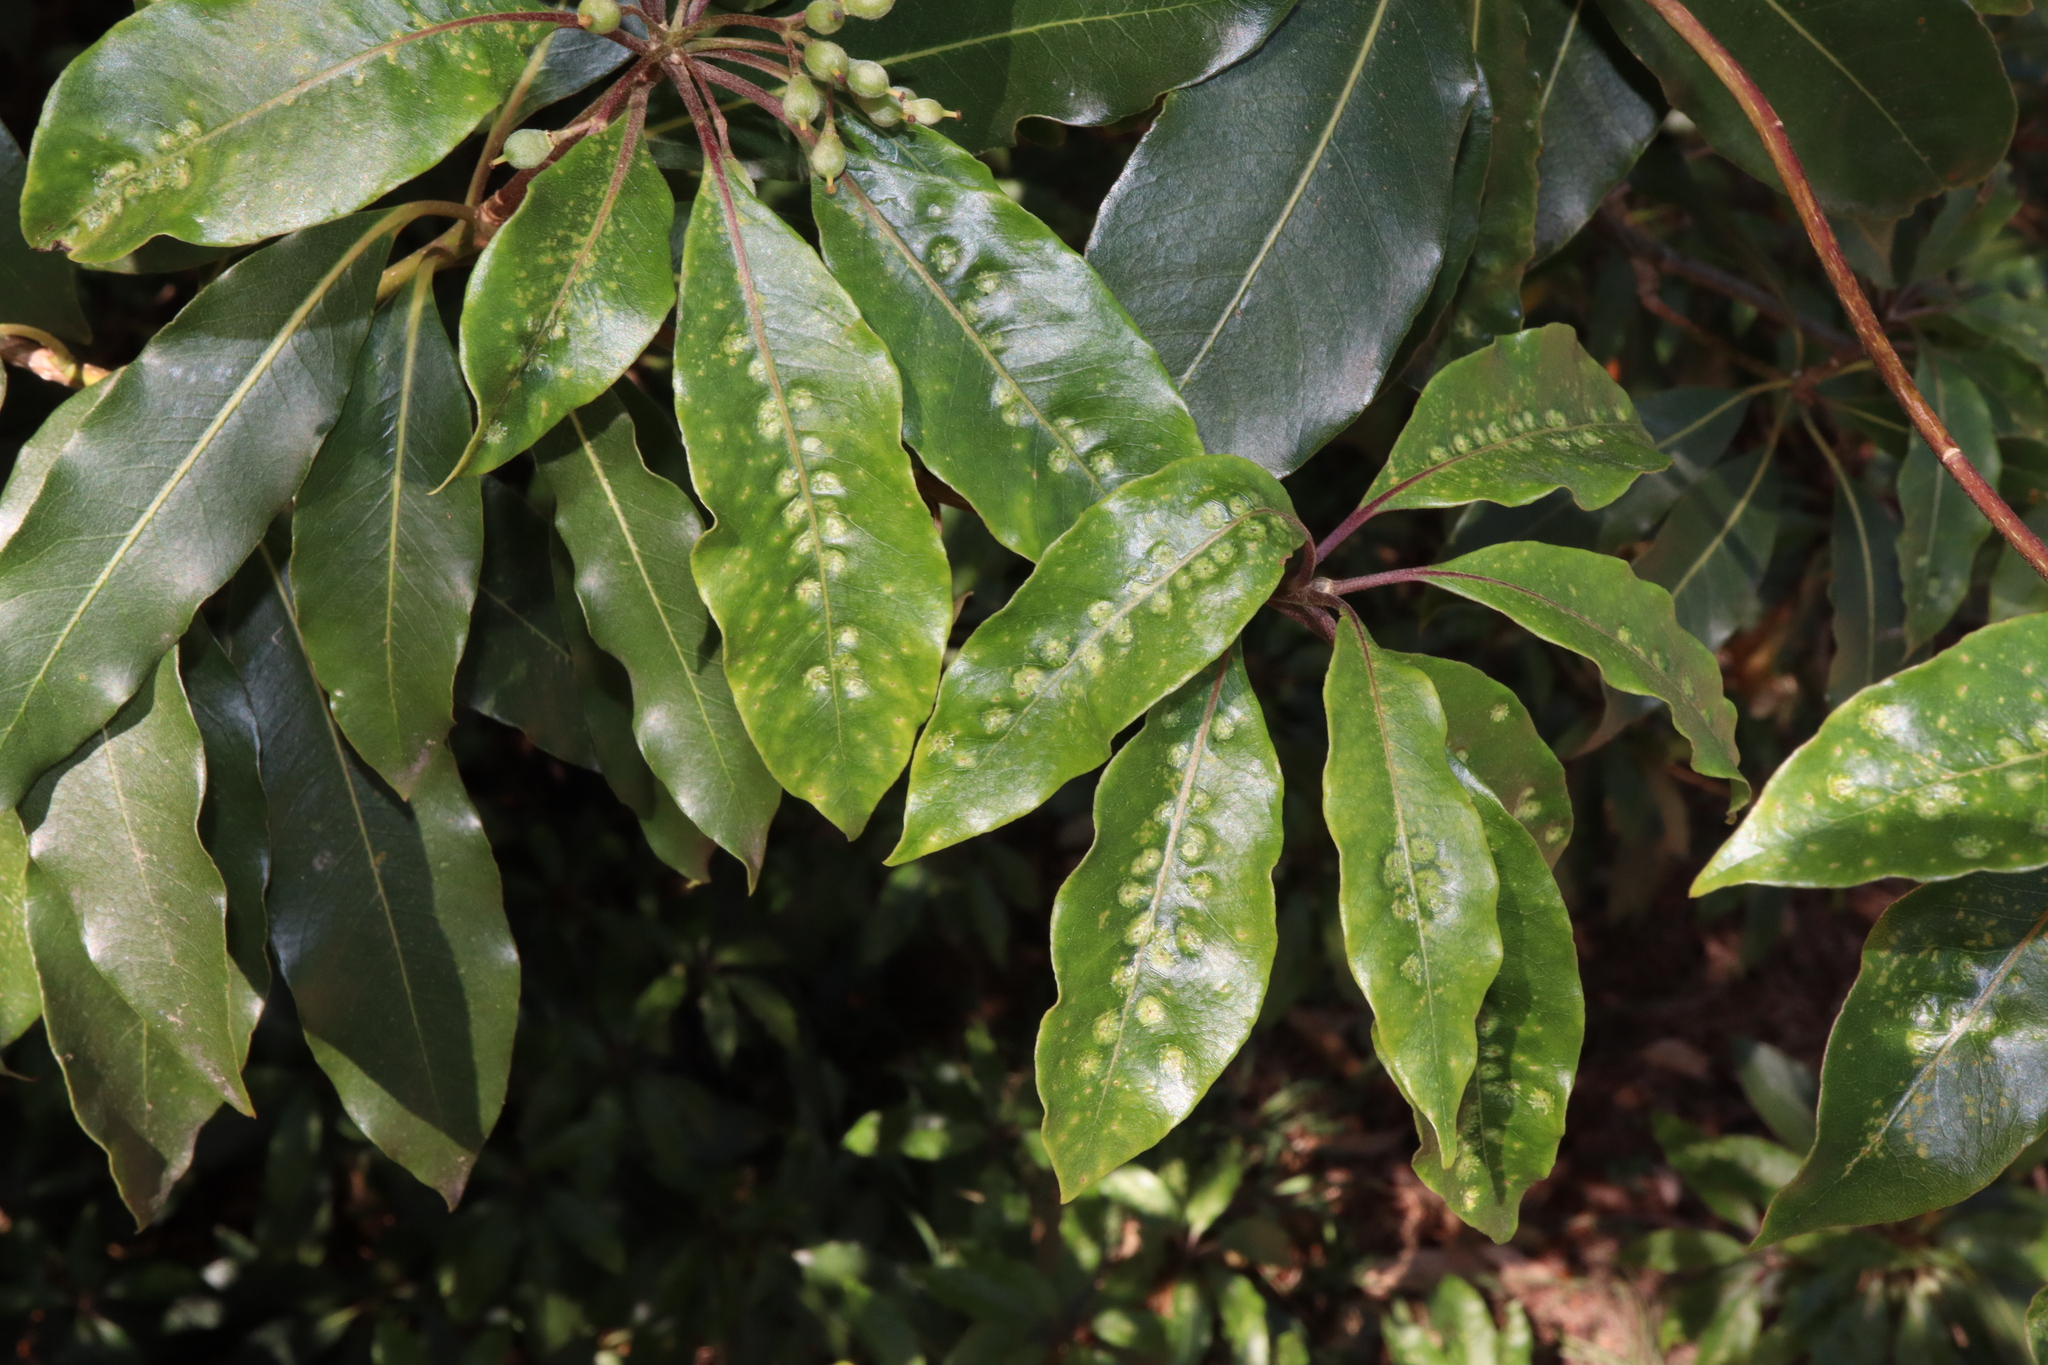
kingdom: Animalia
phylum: Arthropoda
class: Insecta
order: Diptera
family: Agromyzidae
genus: Phytoliriomyza
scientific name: Phytoliriomyza pittosporophylli
